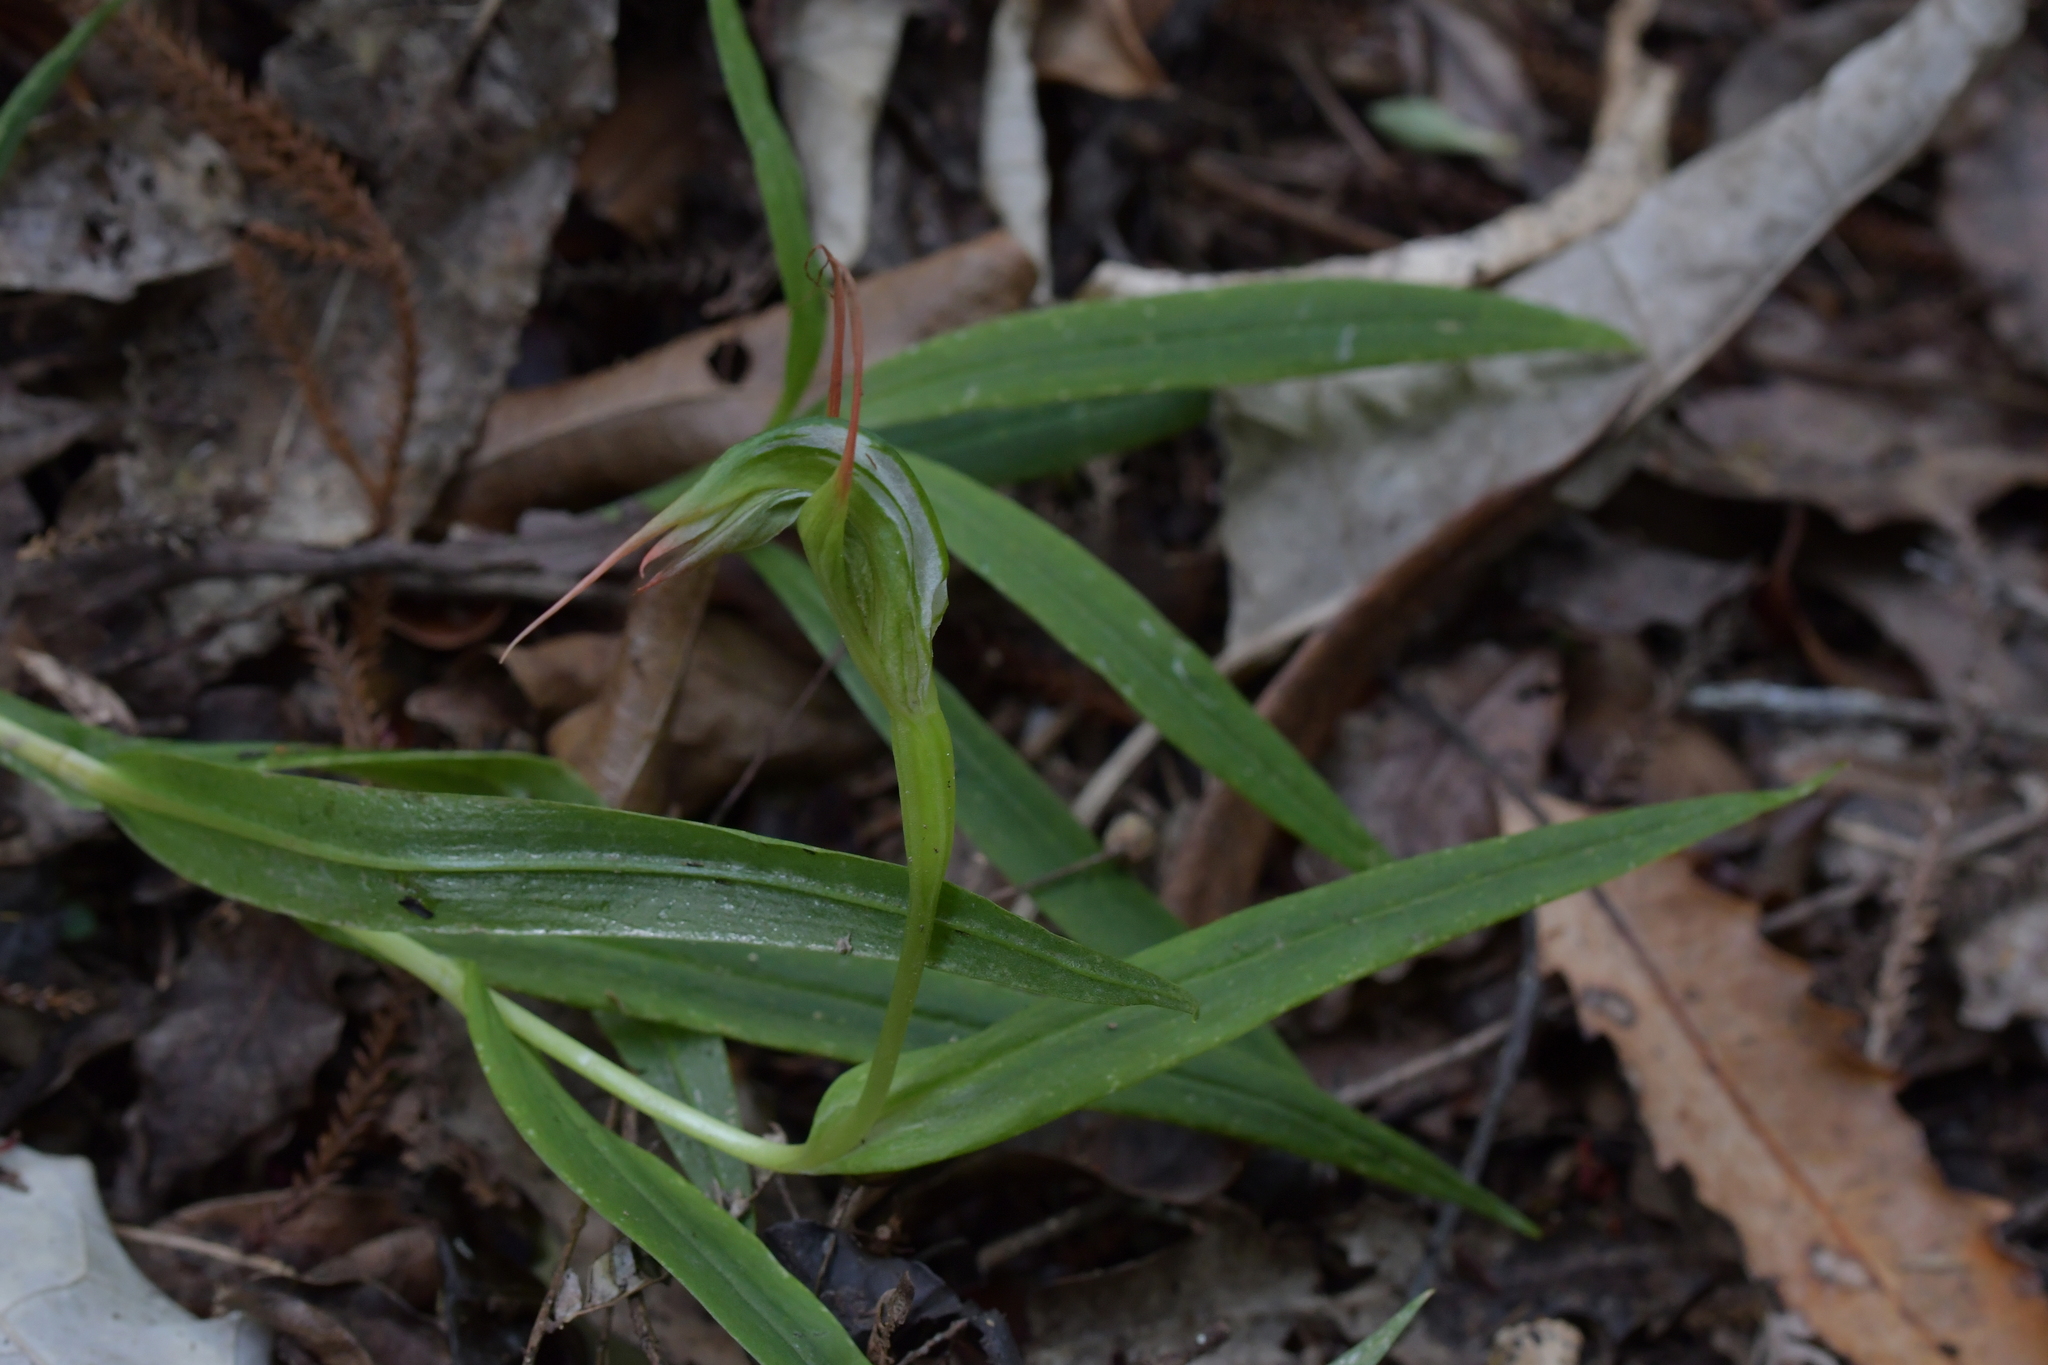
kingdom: Plantae
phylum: Tracheophyta
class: Liliopsida
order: Asparagales
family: Orchidaceae
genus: Pterostylis
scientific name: Pterostylis banksii
